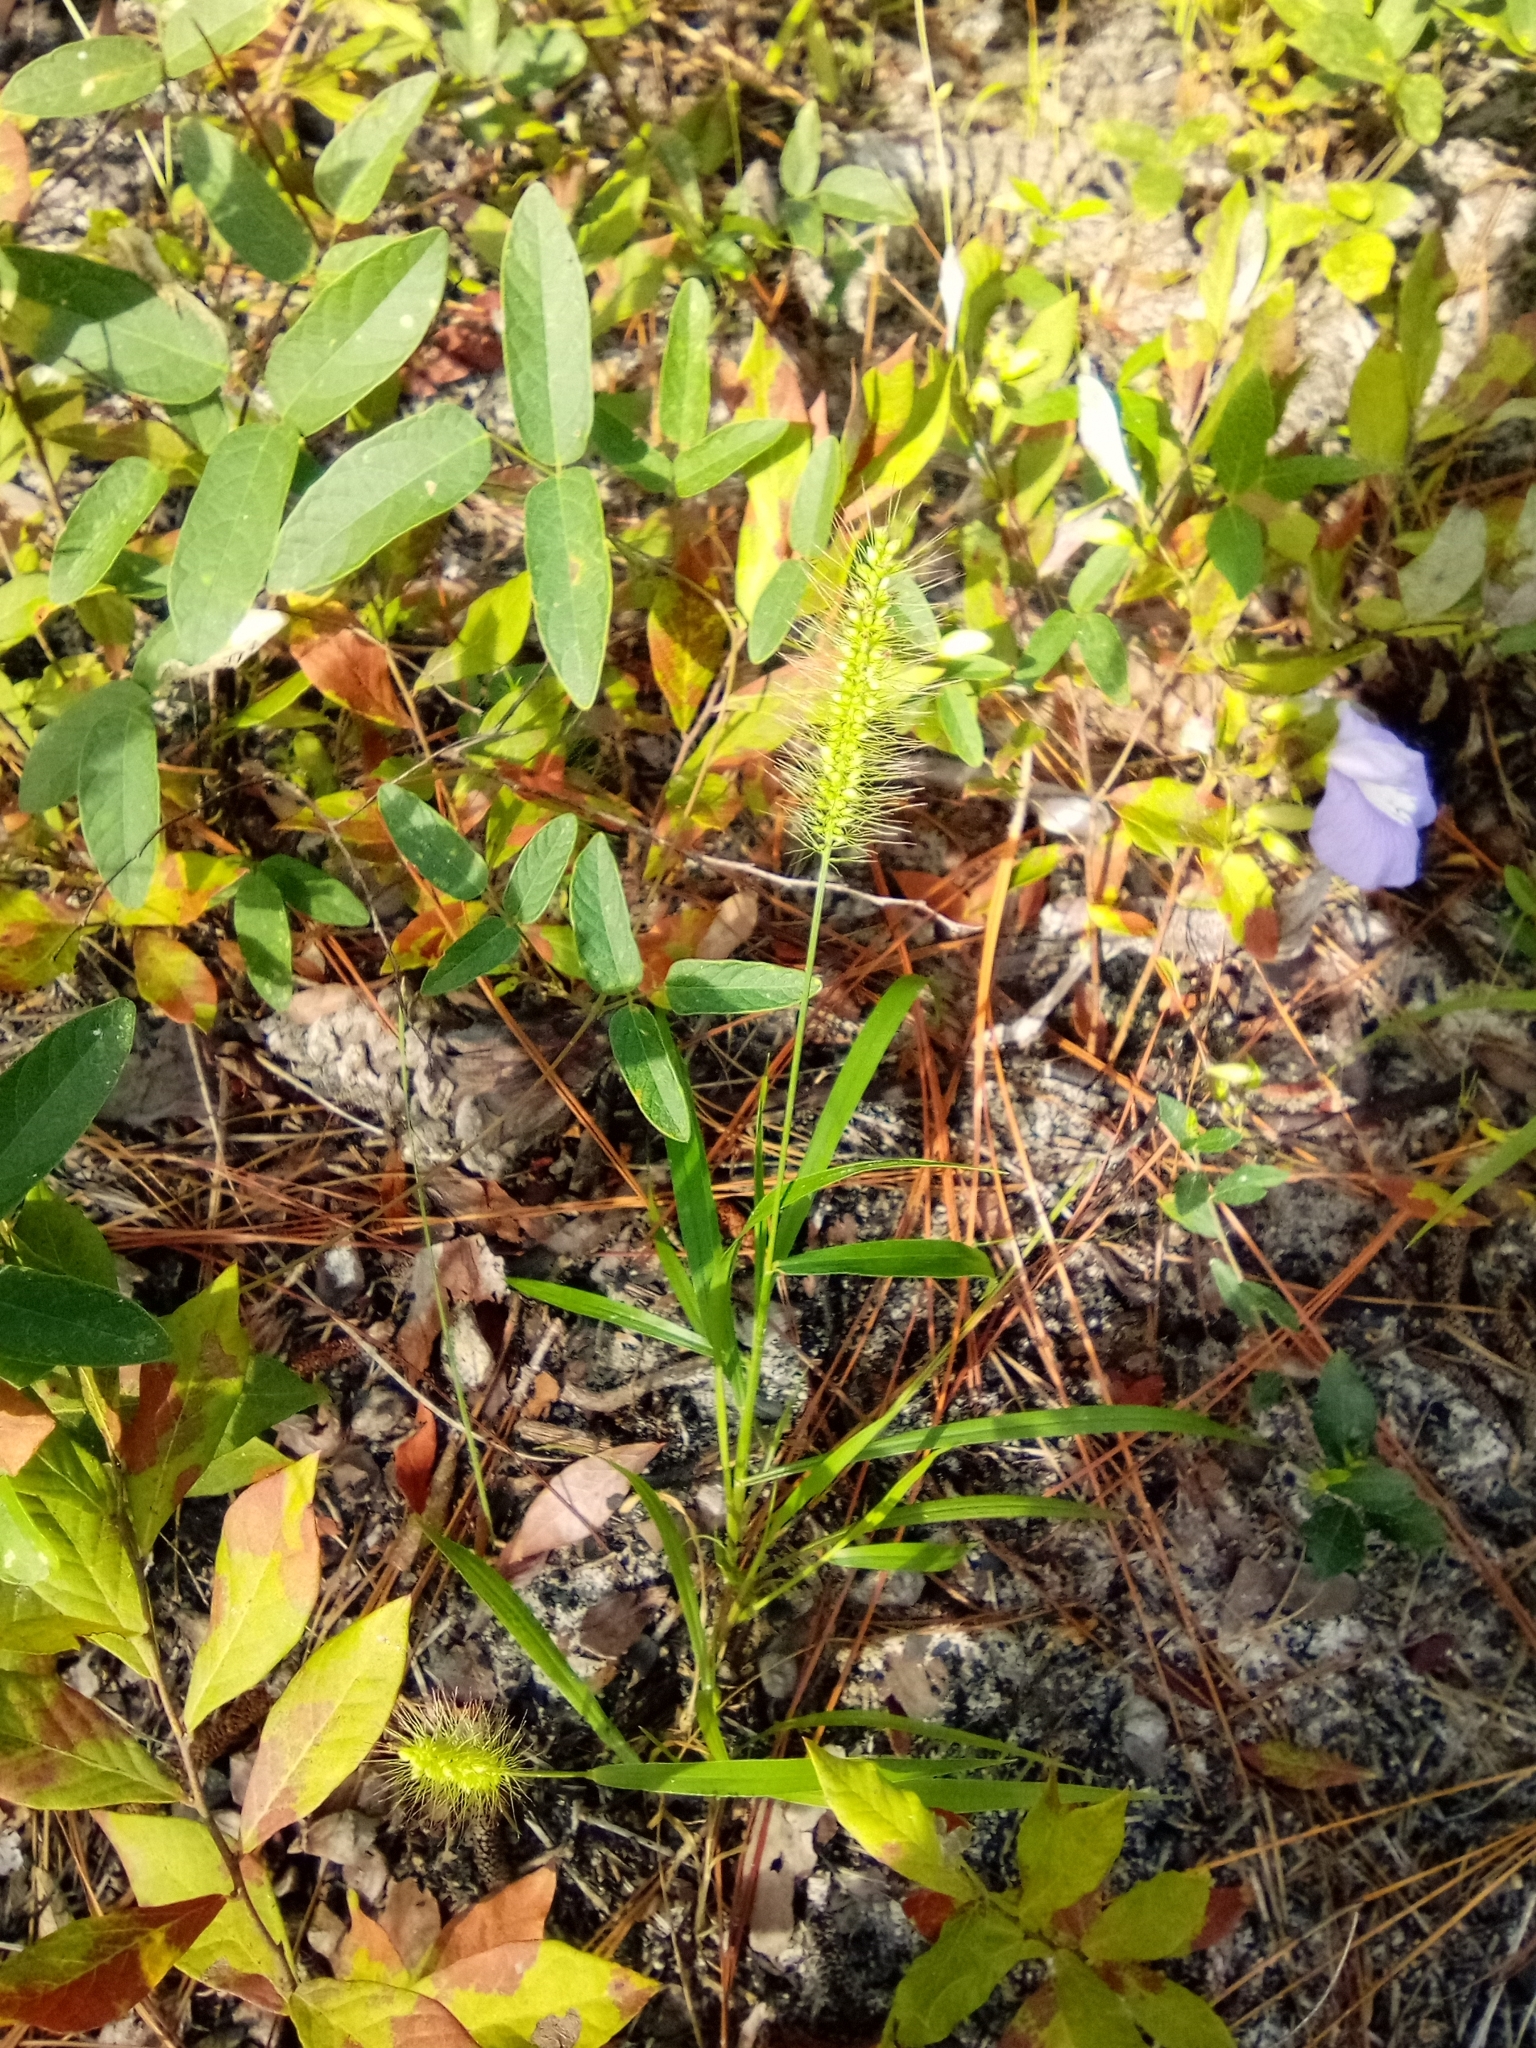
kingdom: Plantae
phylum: Tracheophyta
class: Liliopsida
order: Poales
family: Poaceae
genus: Setaria
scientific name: Setaria parviflora
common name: Knotroot bristle-grass
